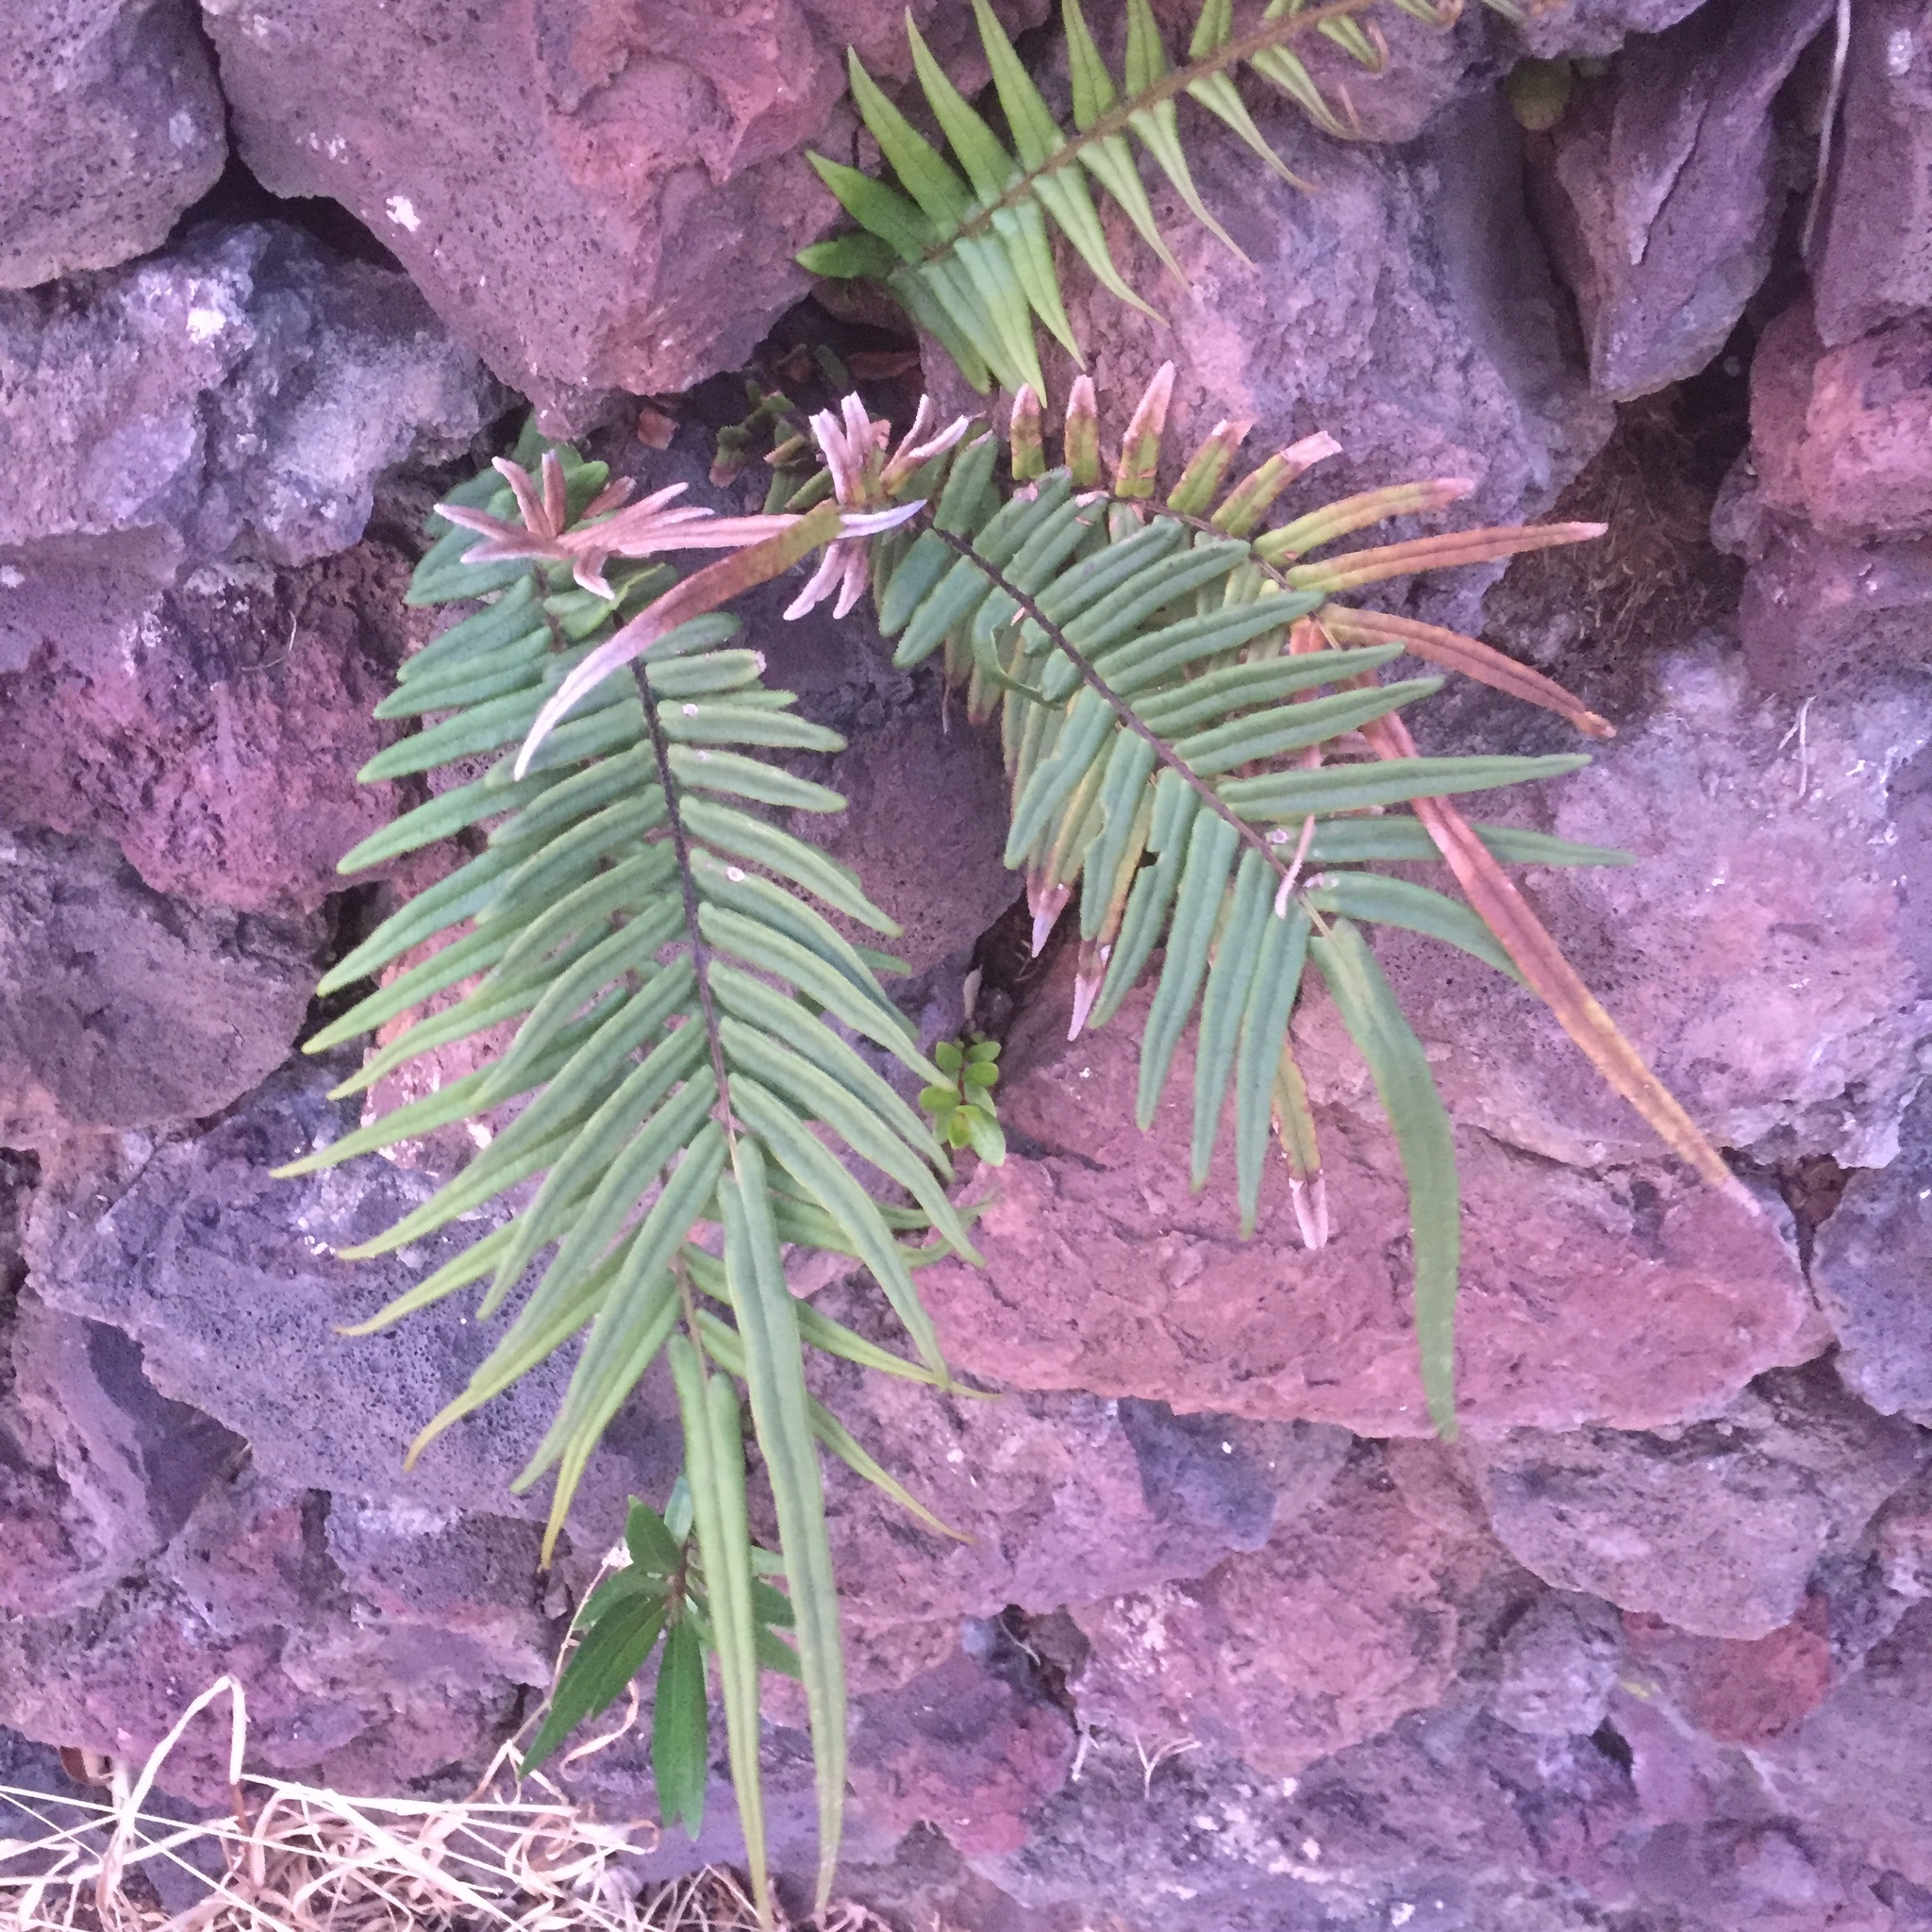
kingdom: Plantae
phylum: Tracheophyta
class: Polypodiopsida
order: Polypodiales
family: Pteridaceae
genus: Pteris
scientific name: Pteris vittata
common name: Ladder brake
